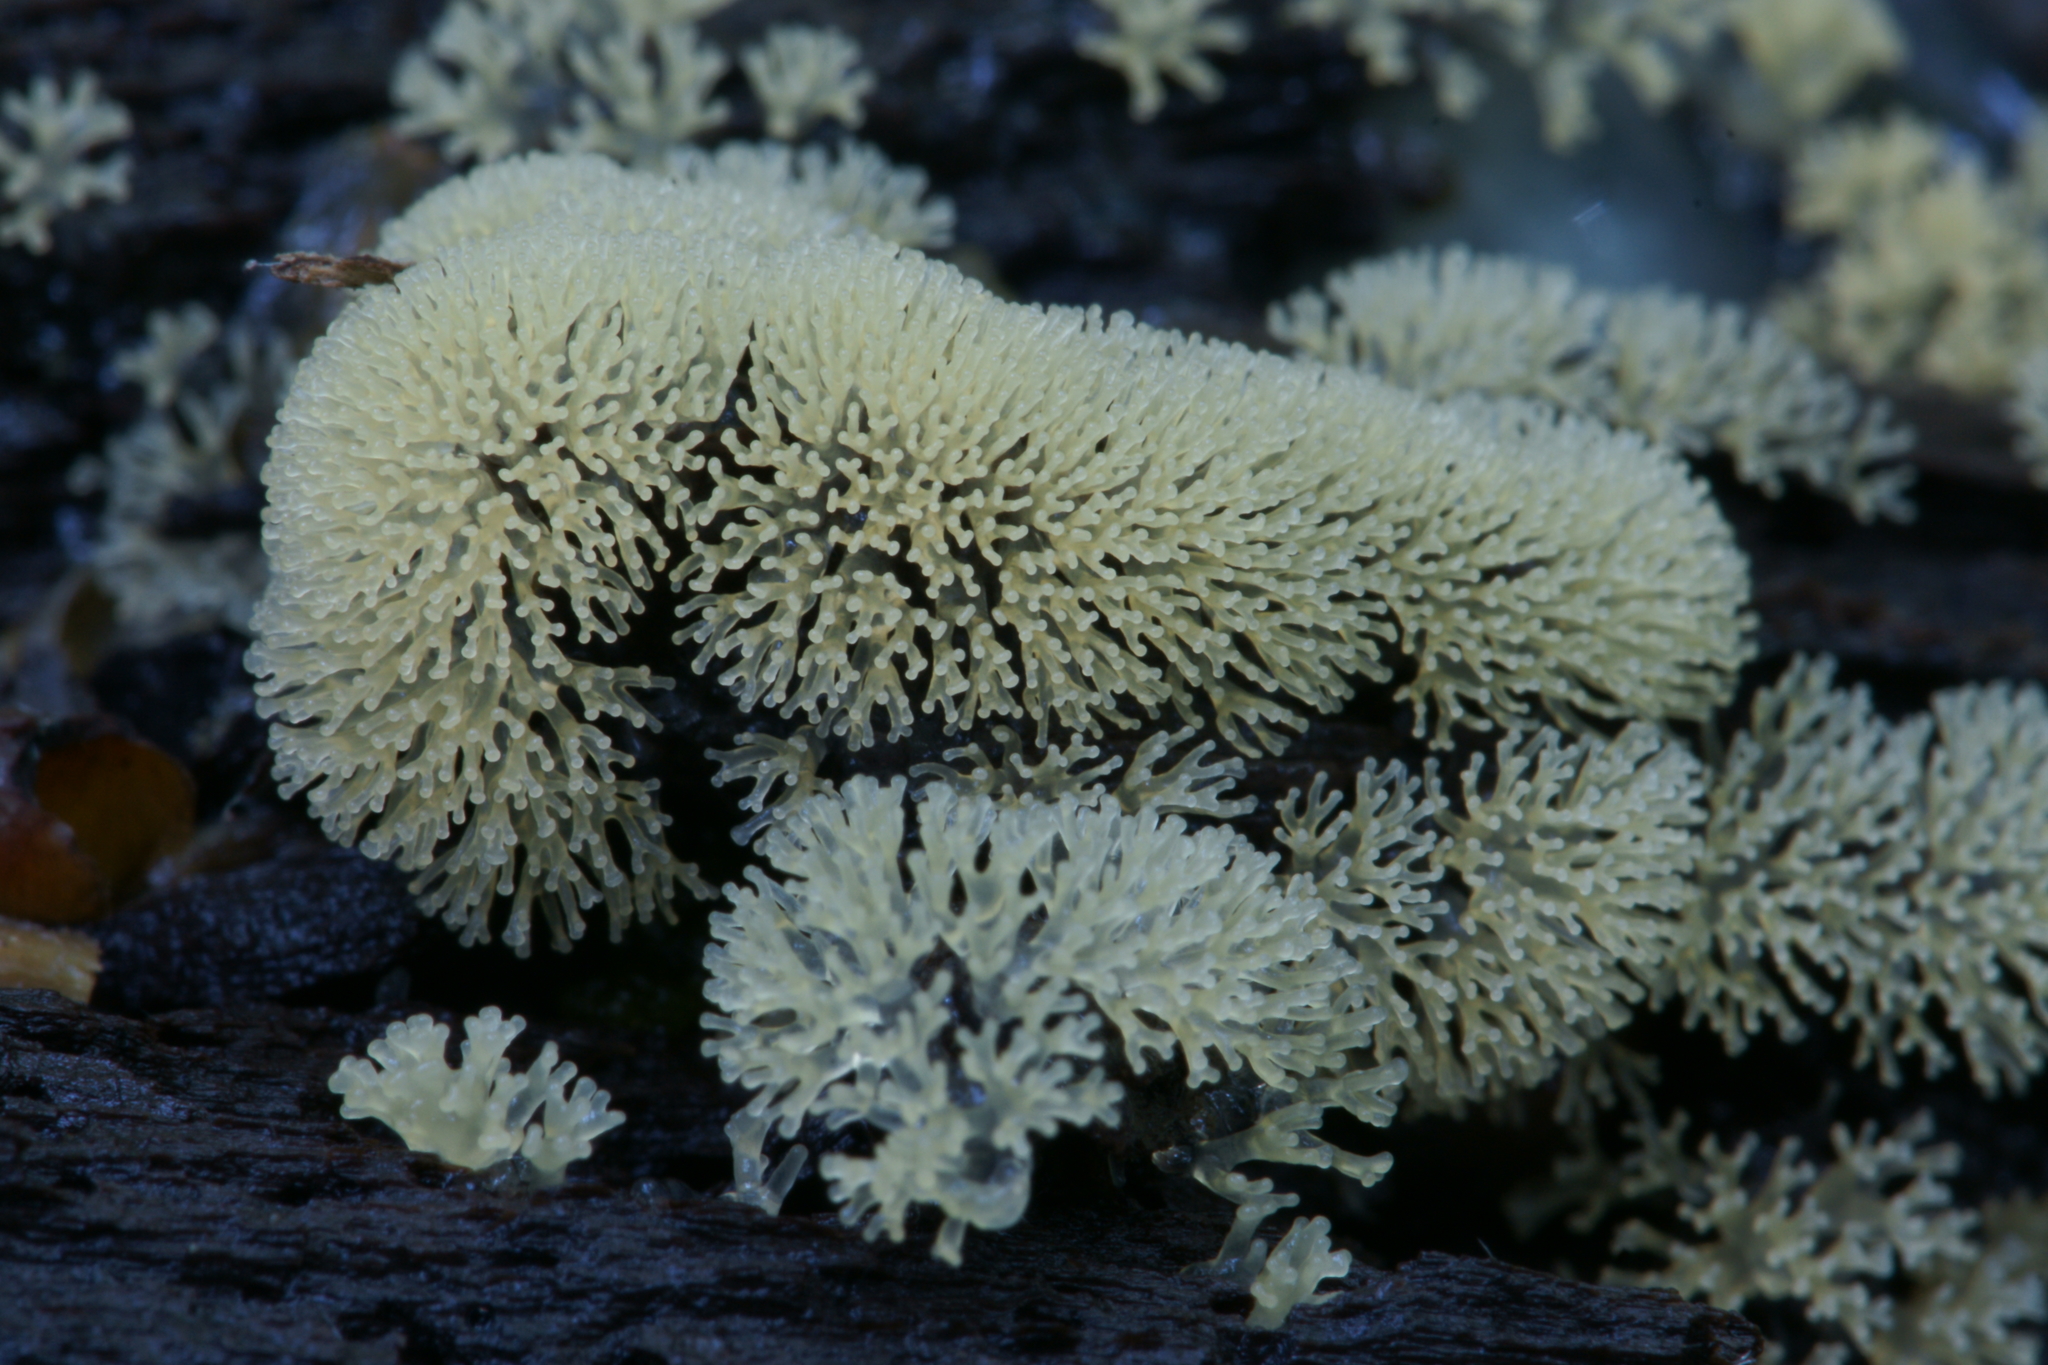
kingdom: Protozoa
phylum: Mycetozoa
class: Protosteliomycetes
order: Ceratiomyxales
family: Ceratiomyxaceae
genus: Ceratiomyxa
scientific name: Ceratiomyxa fruticulosa
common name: Honeycomb coral slime mold
